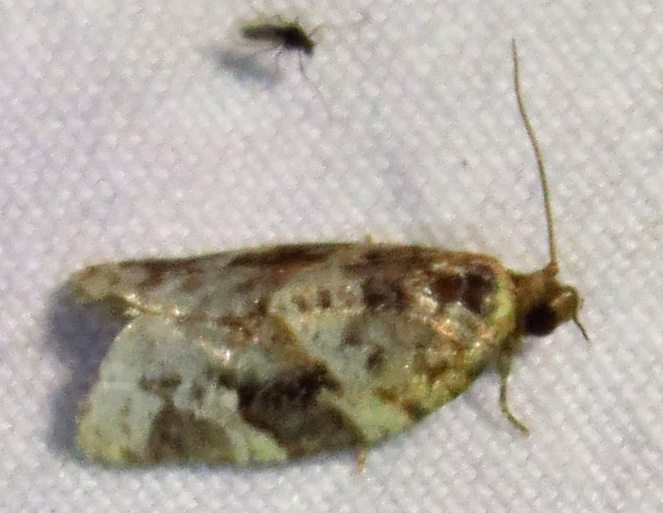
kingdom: Animalia
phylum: Arthropoda
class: Insecta
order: Lepidoptera
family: Tortricidae
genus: Argyrotaenia
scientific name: Argyrotaenia velutinana
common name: Red-banded leafroller moth
